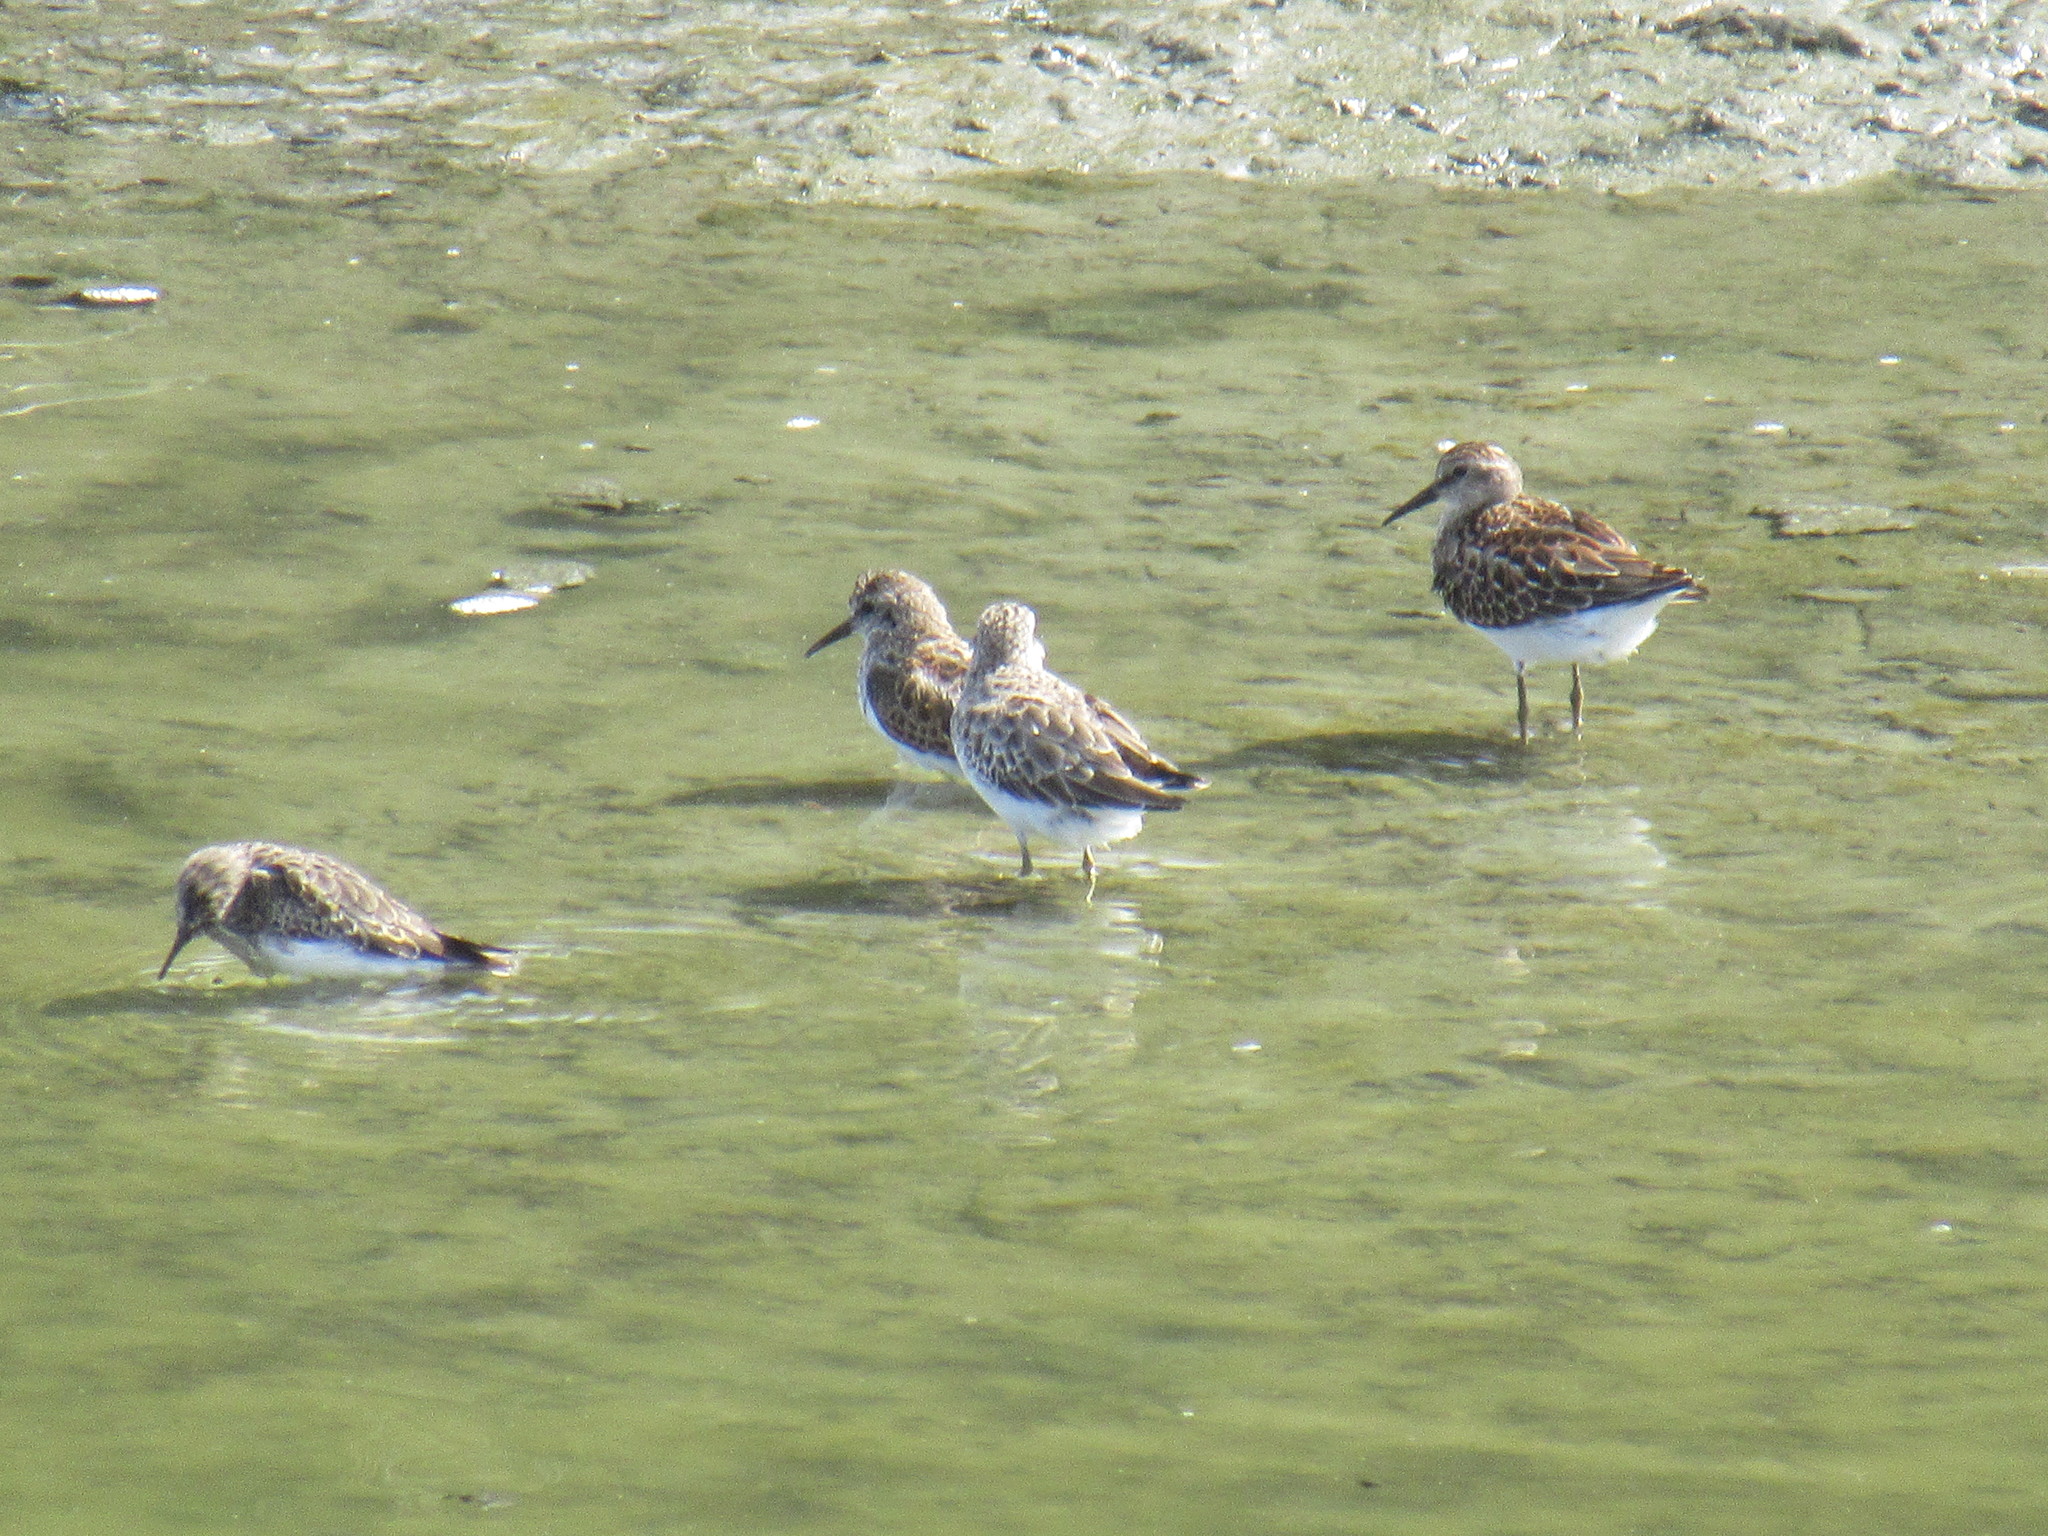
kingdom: Animalia
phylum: Chordata
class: Aves
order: Charadriiformes
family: Scolopacidae
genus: Calidris
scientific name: Calidris minutilla
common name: Least sandpiper
